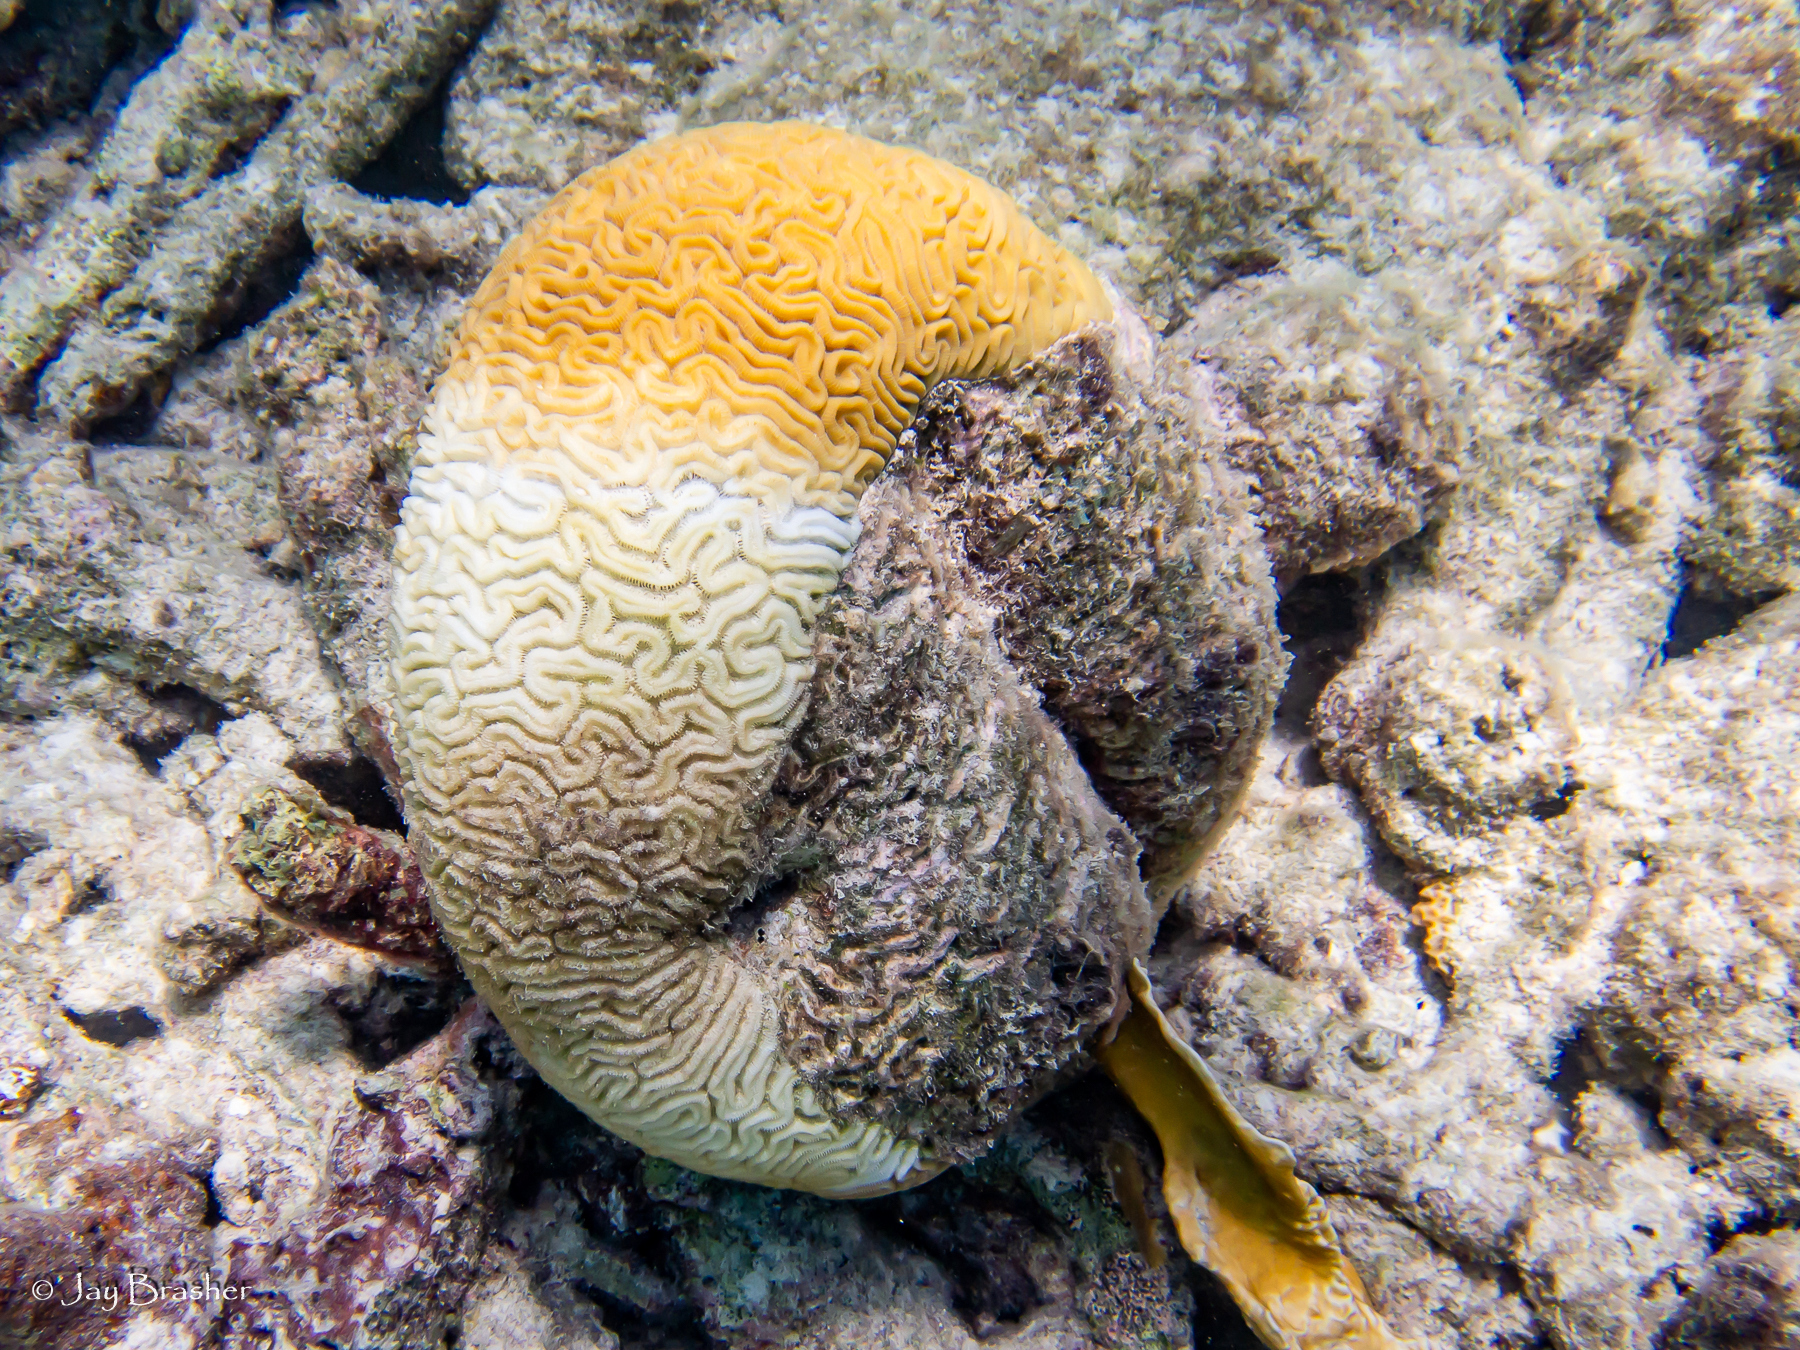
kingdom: Animalia
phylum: Cnidaria
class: Anthozoa
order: Scleractinia
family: Faviidae
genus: Diploria
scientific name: Diploria labyrinthiformis
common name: Grooved brain coral
